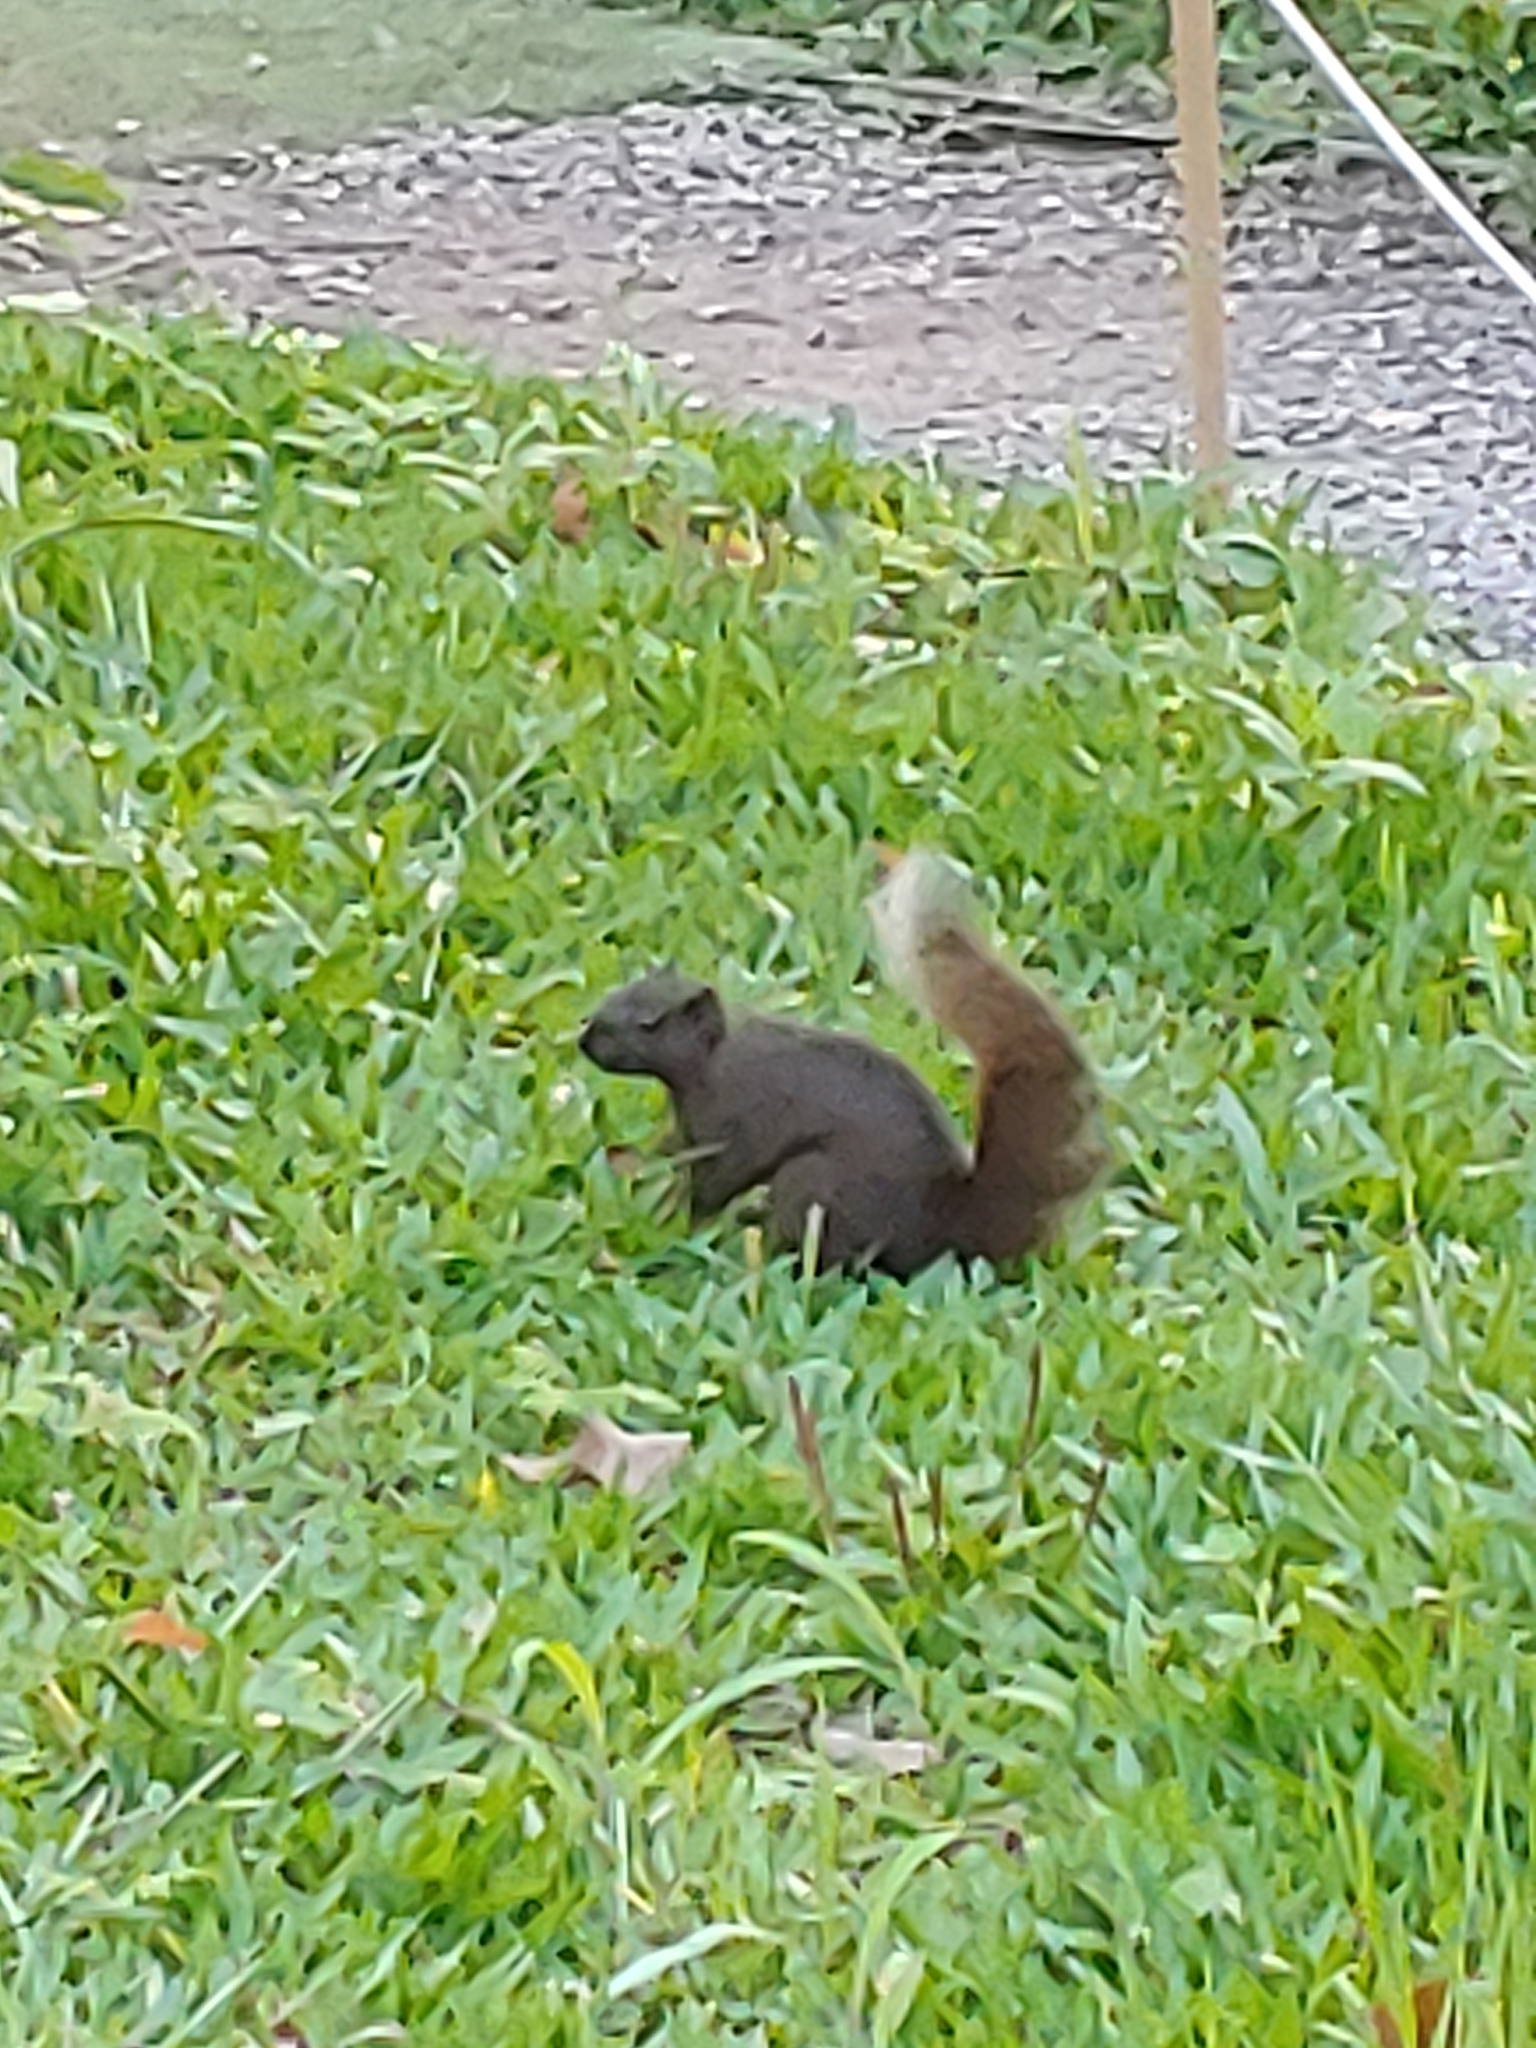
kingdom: Animalia
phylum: Chordata
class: Mammalia
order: Rodentia
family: Sciuridae
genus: Callosciurus
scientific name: Callosciurus erythraeus
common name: Pallas's squirrel
